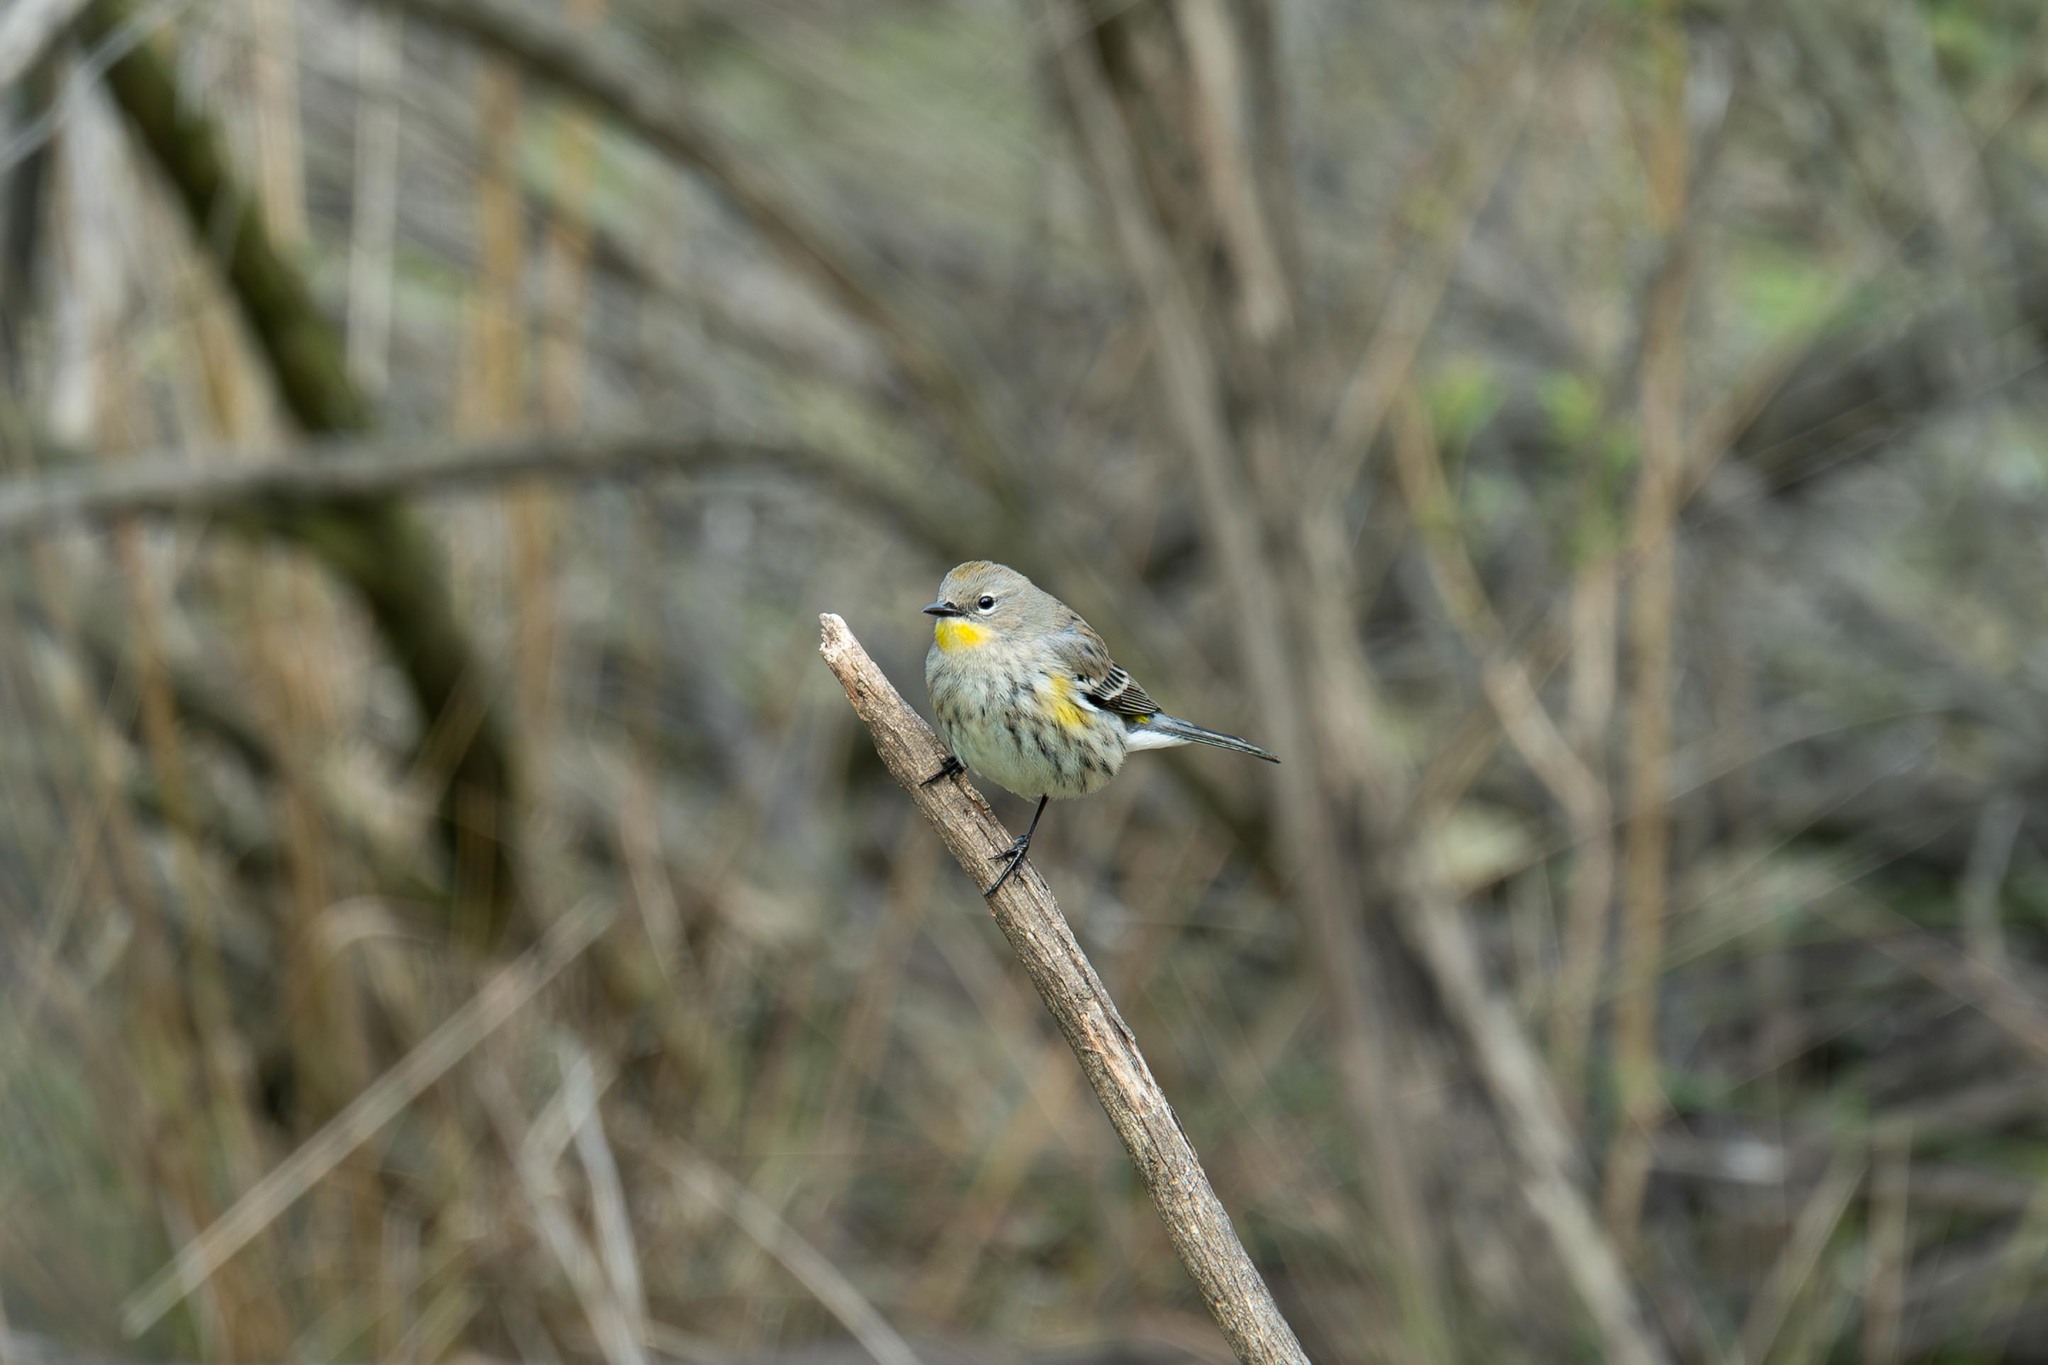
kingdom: Animalia
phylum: Chordata
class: Aves
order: Passeriformes
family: Parulidae
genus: Setophaga
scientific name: Setophaga coronata
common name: Myrtle warbler
